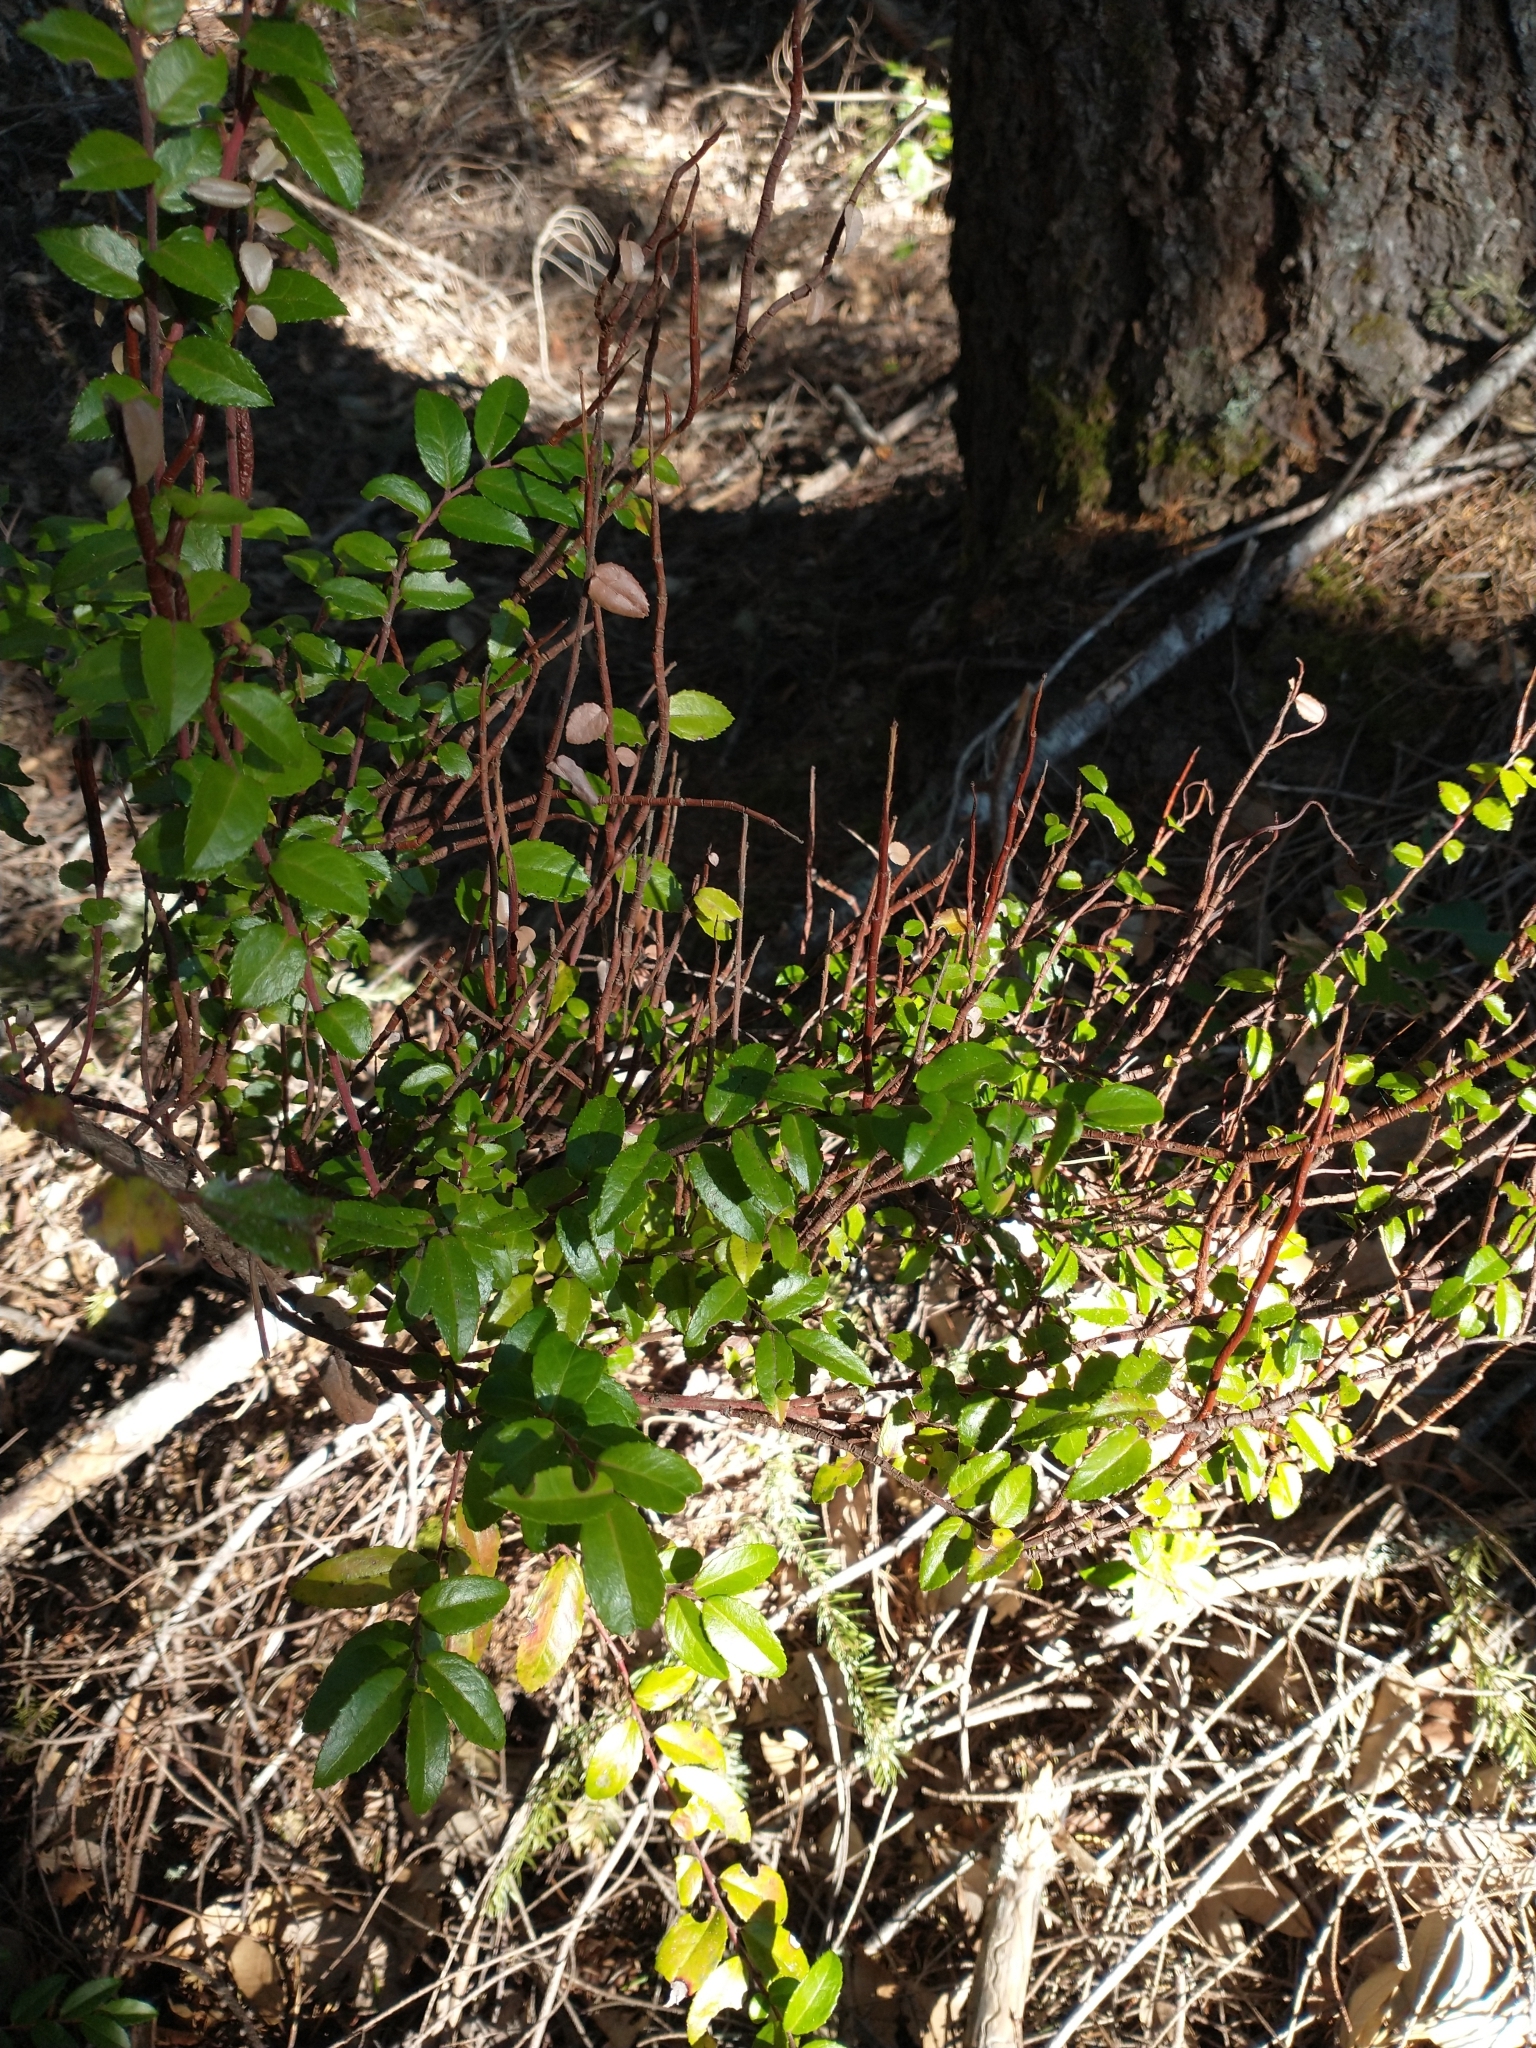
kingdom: Fungi
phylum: Basidiomycota
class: Pucciniomycetes
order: Pucciniales
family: Pucciniastraceae
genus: Calyptospora
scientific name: Calyptospora
